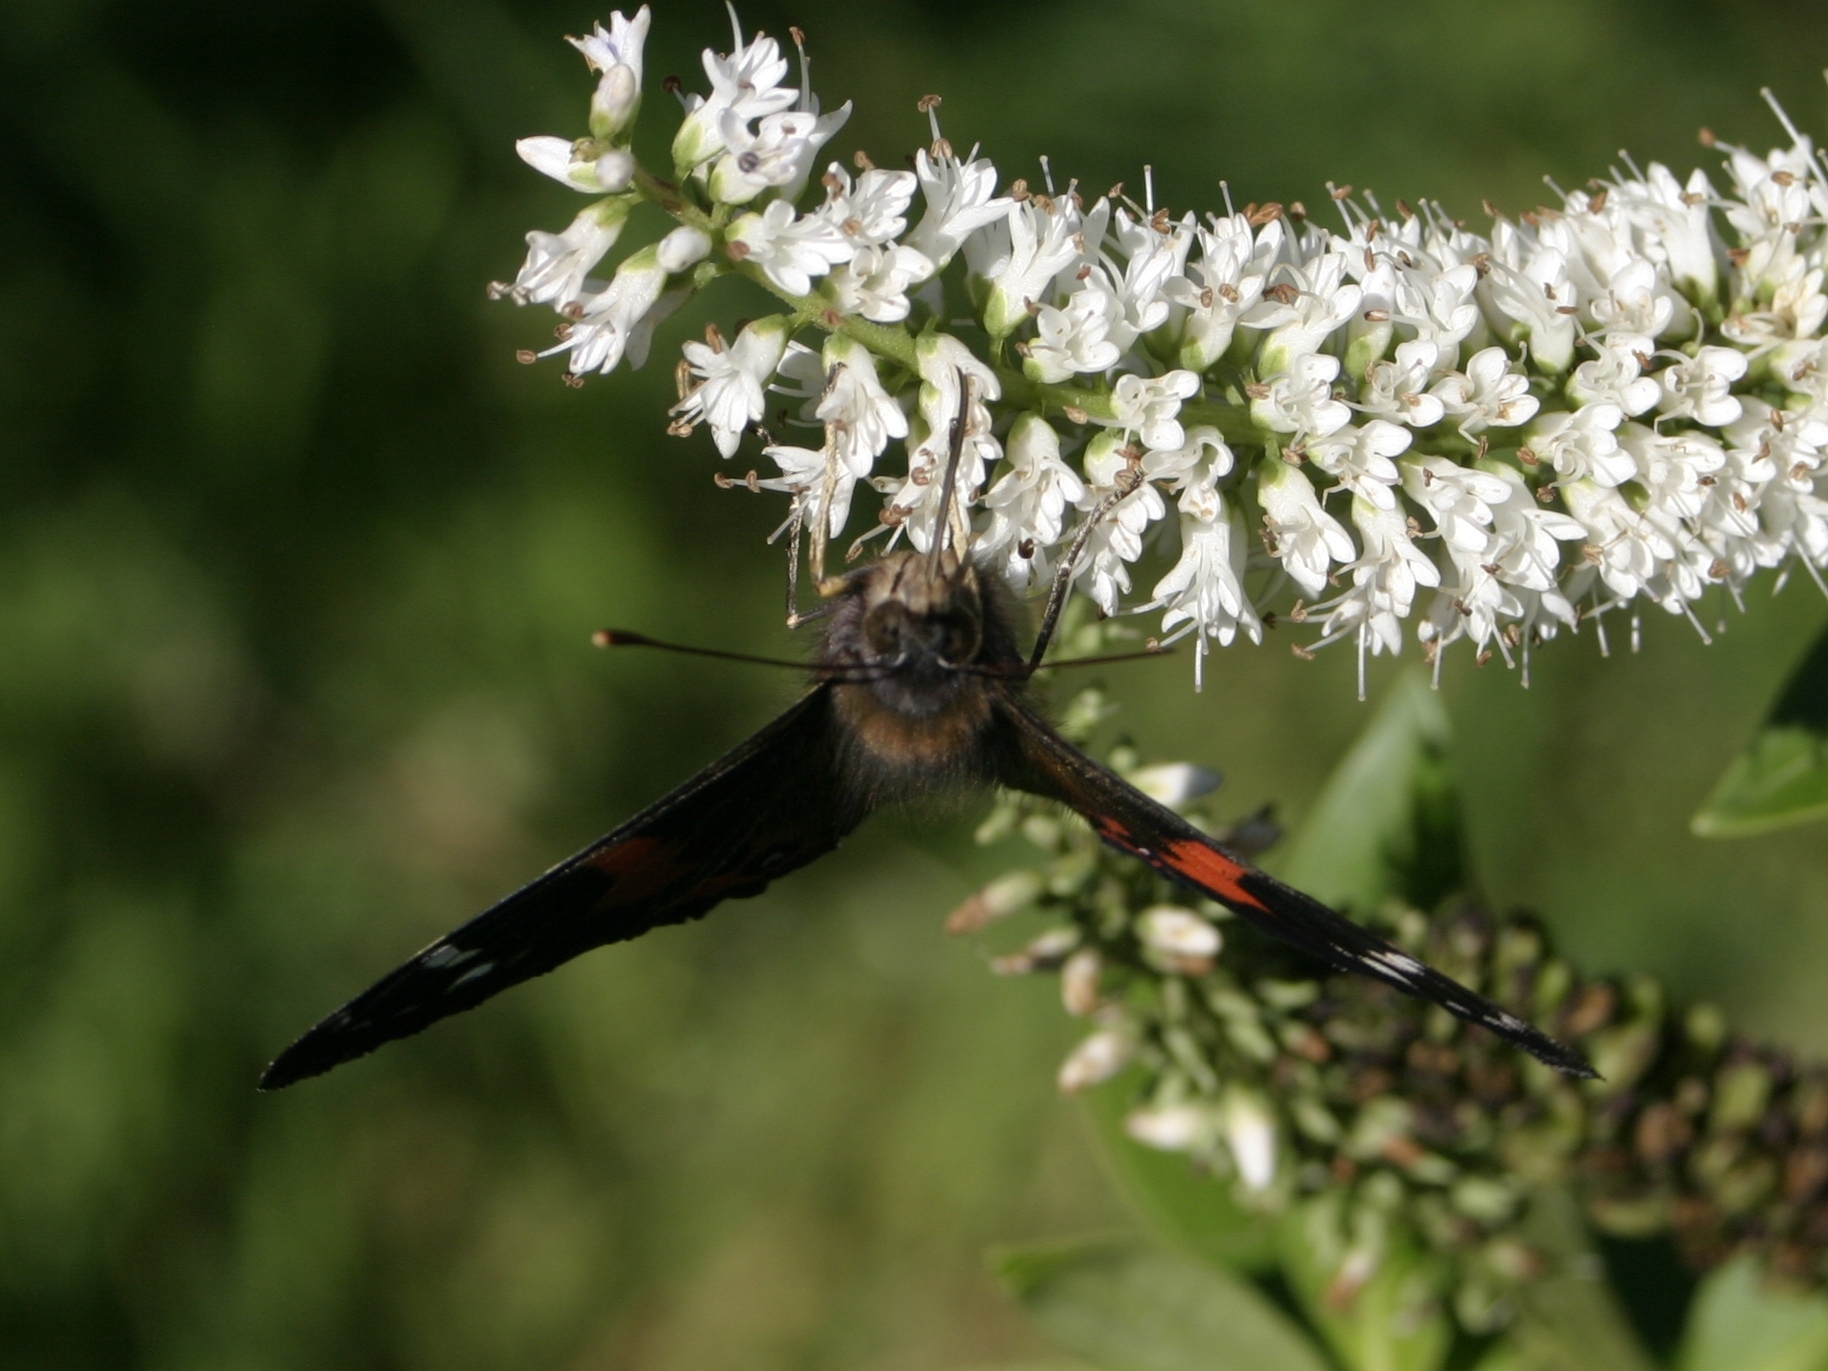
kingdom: Animalia
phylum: Arthropoda
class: Insecta
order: Lepidoptera
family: Nymphalidae
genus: Vanessa
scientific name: Vanessa gonerilla
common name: New zealand red admiral
